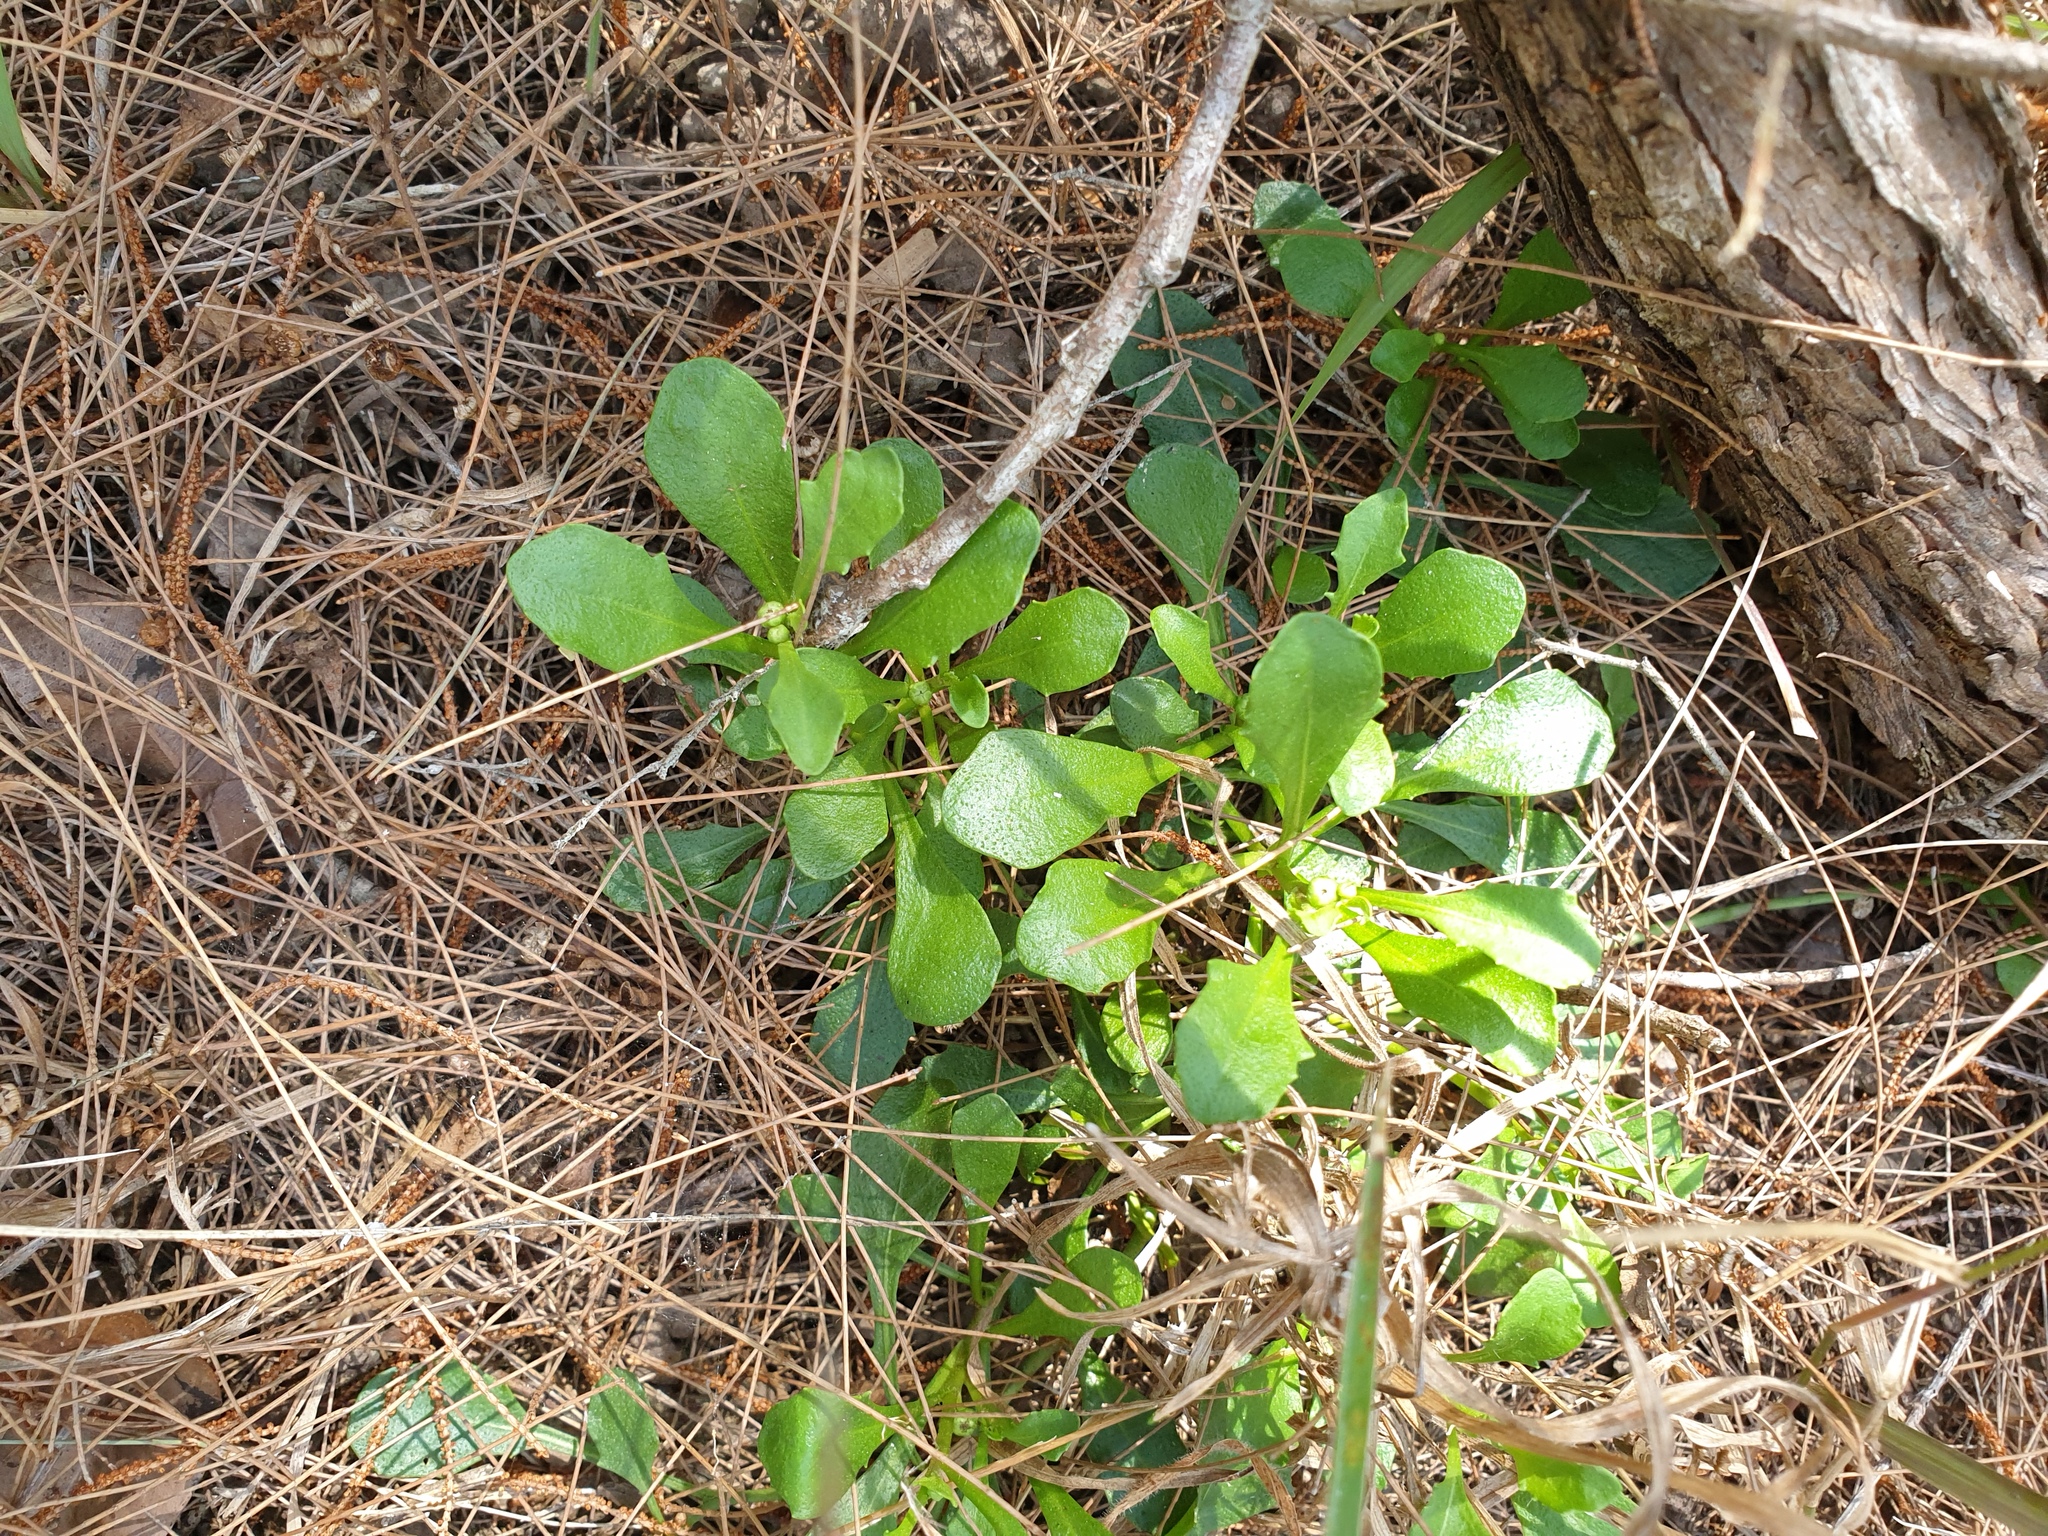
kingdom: Plantae
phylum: Tracheophyta
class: Magnoliopsida
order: Asterales
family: Asteraceae
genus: Sphaeromorphaea
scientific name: Sphaeromorphaea australis
